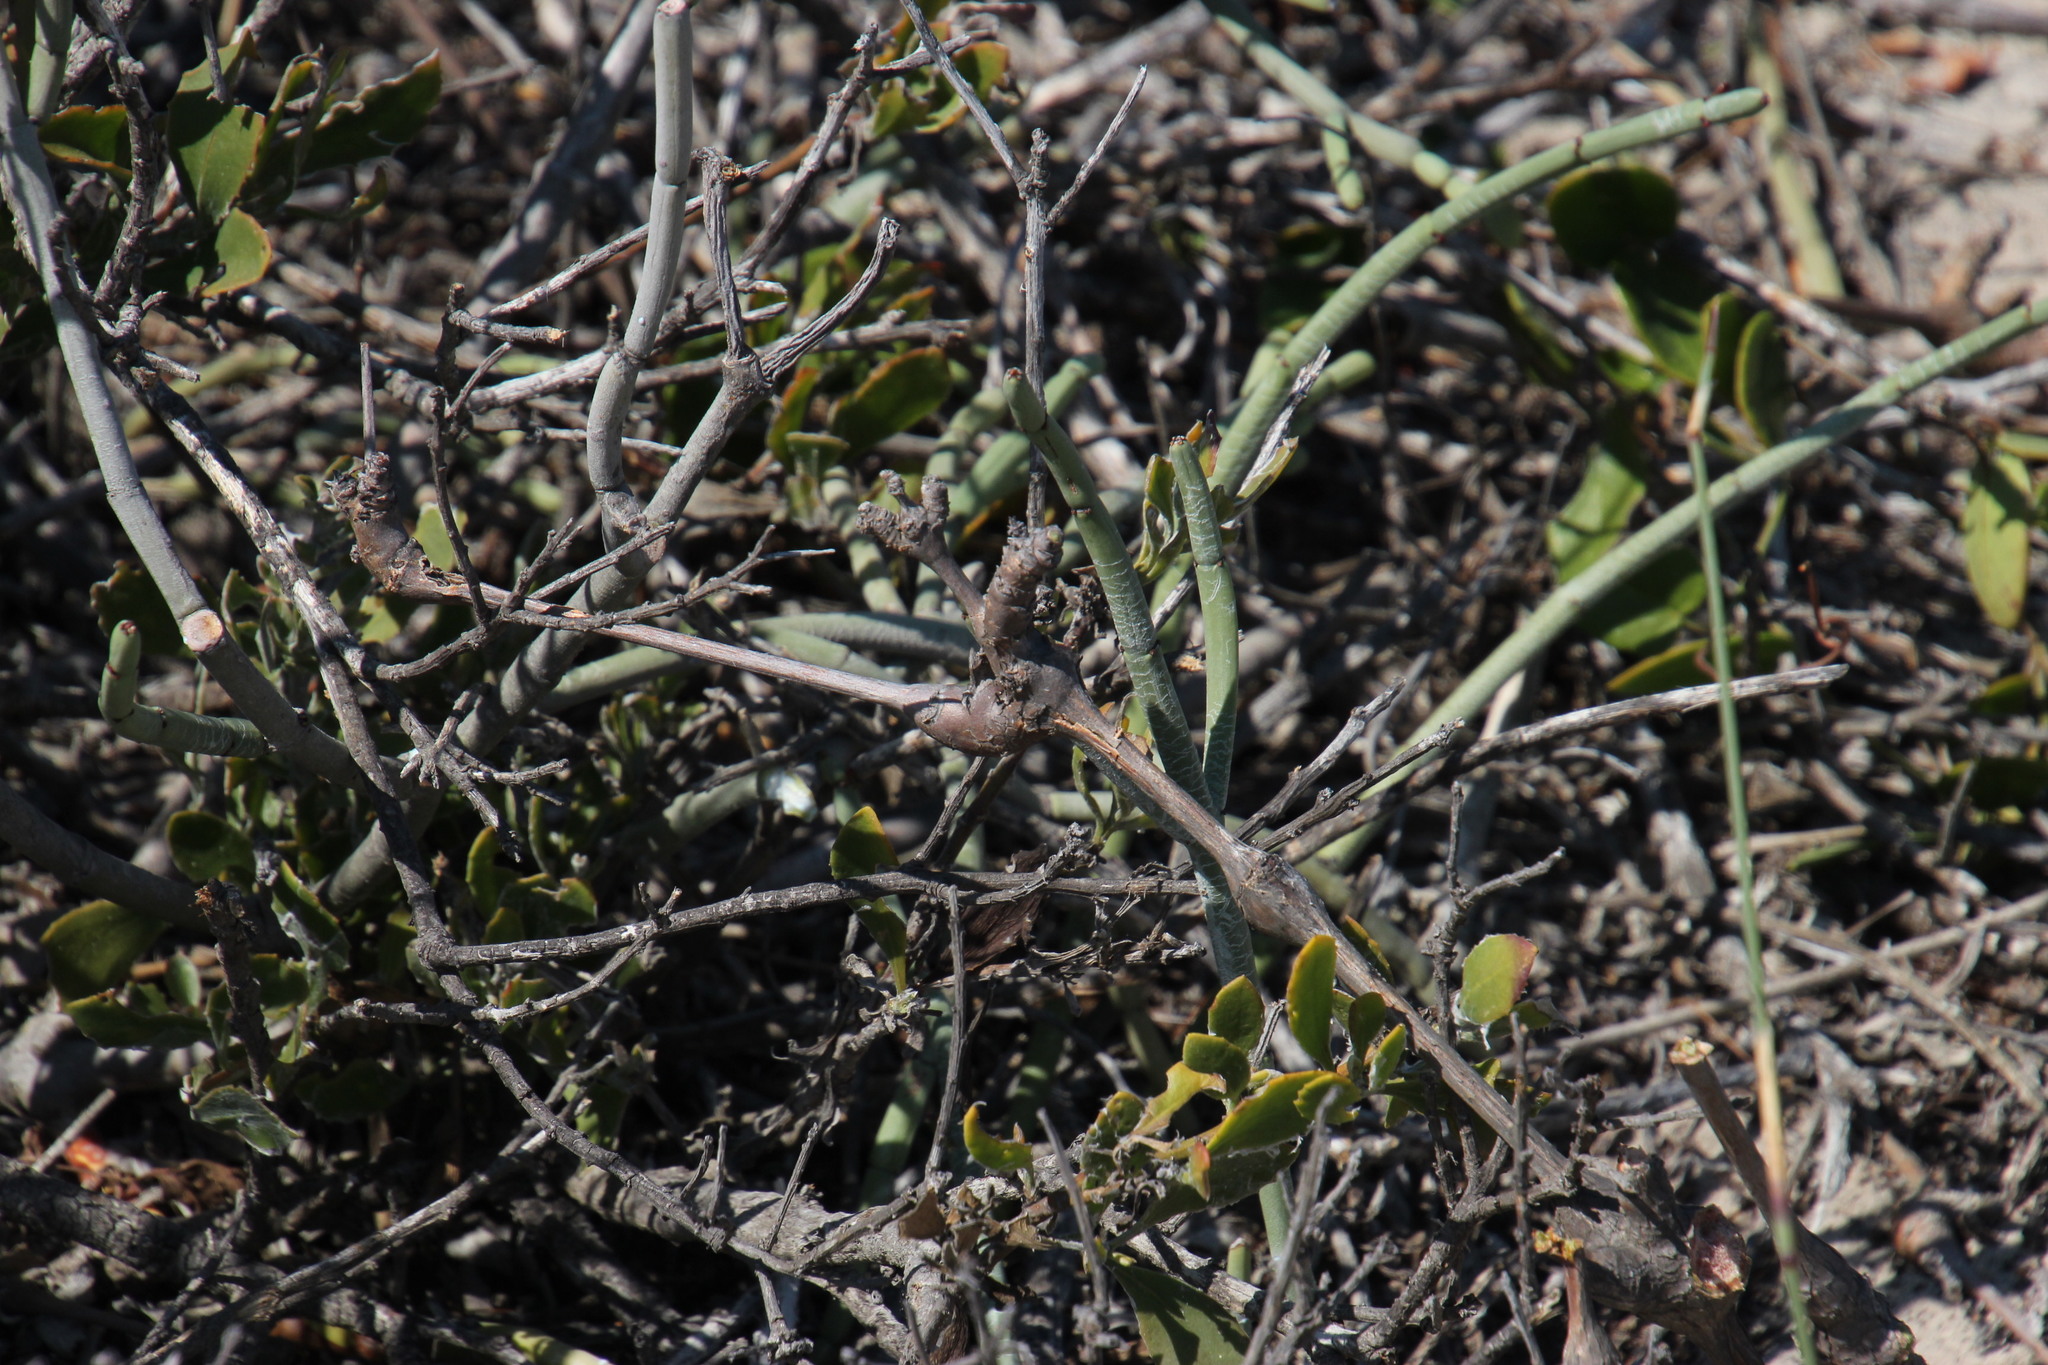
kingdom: Plantae
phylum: Tracheophyta
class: Magnoliopsida
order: Geraniales
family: Geraniaceae
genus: Pelargonium
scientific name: Pelargonium gibbosum
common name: Gouty geranium
